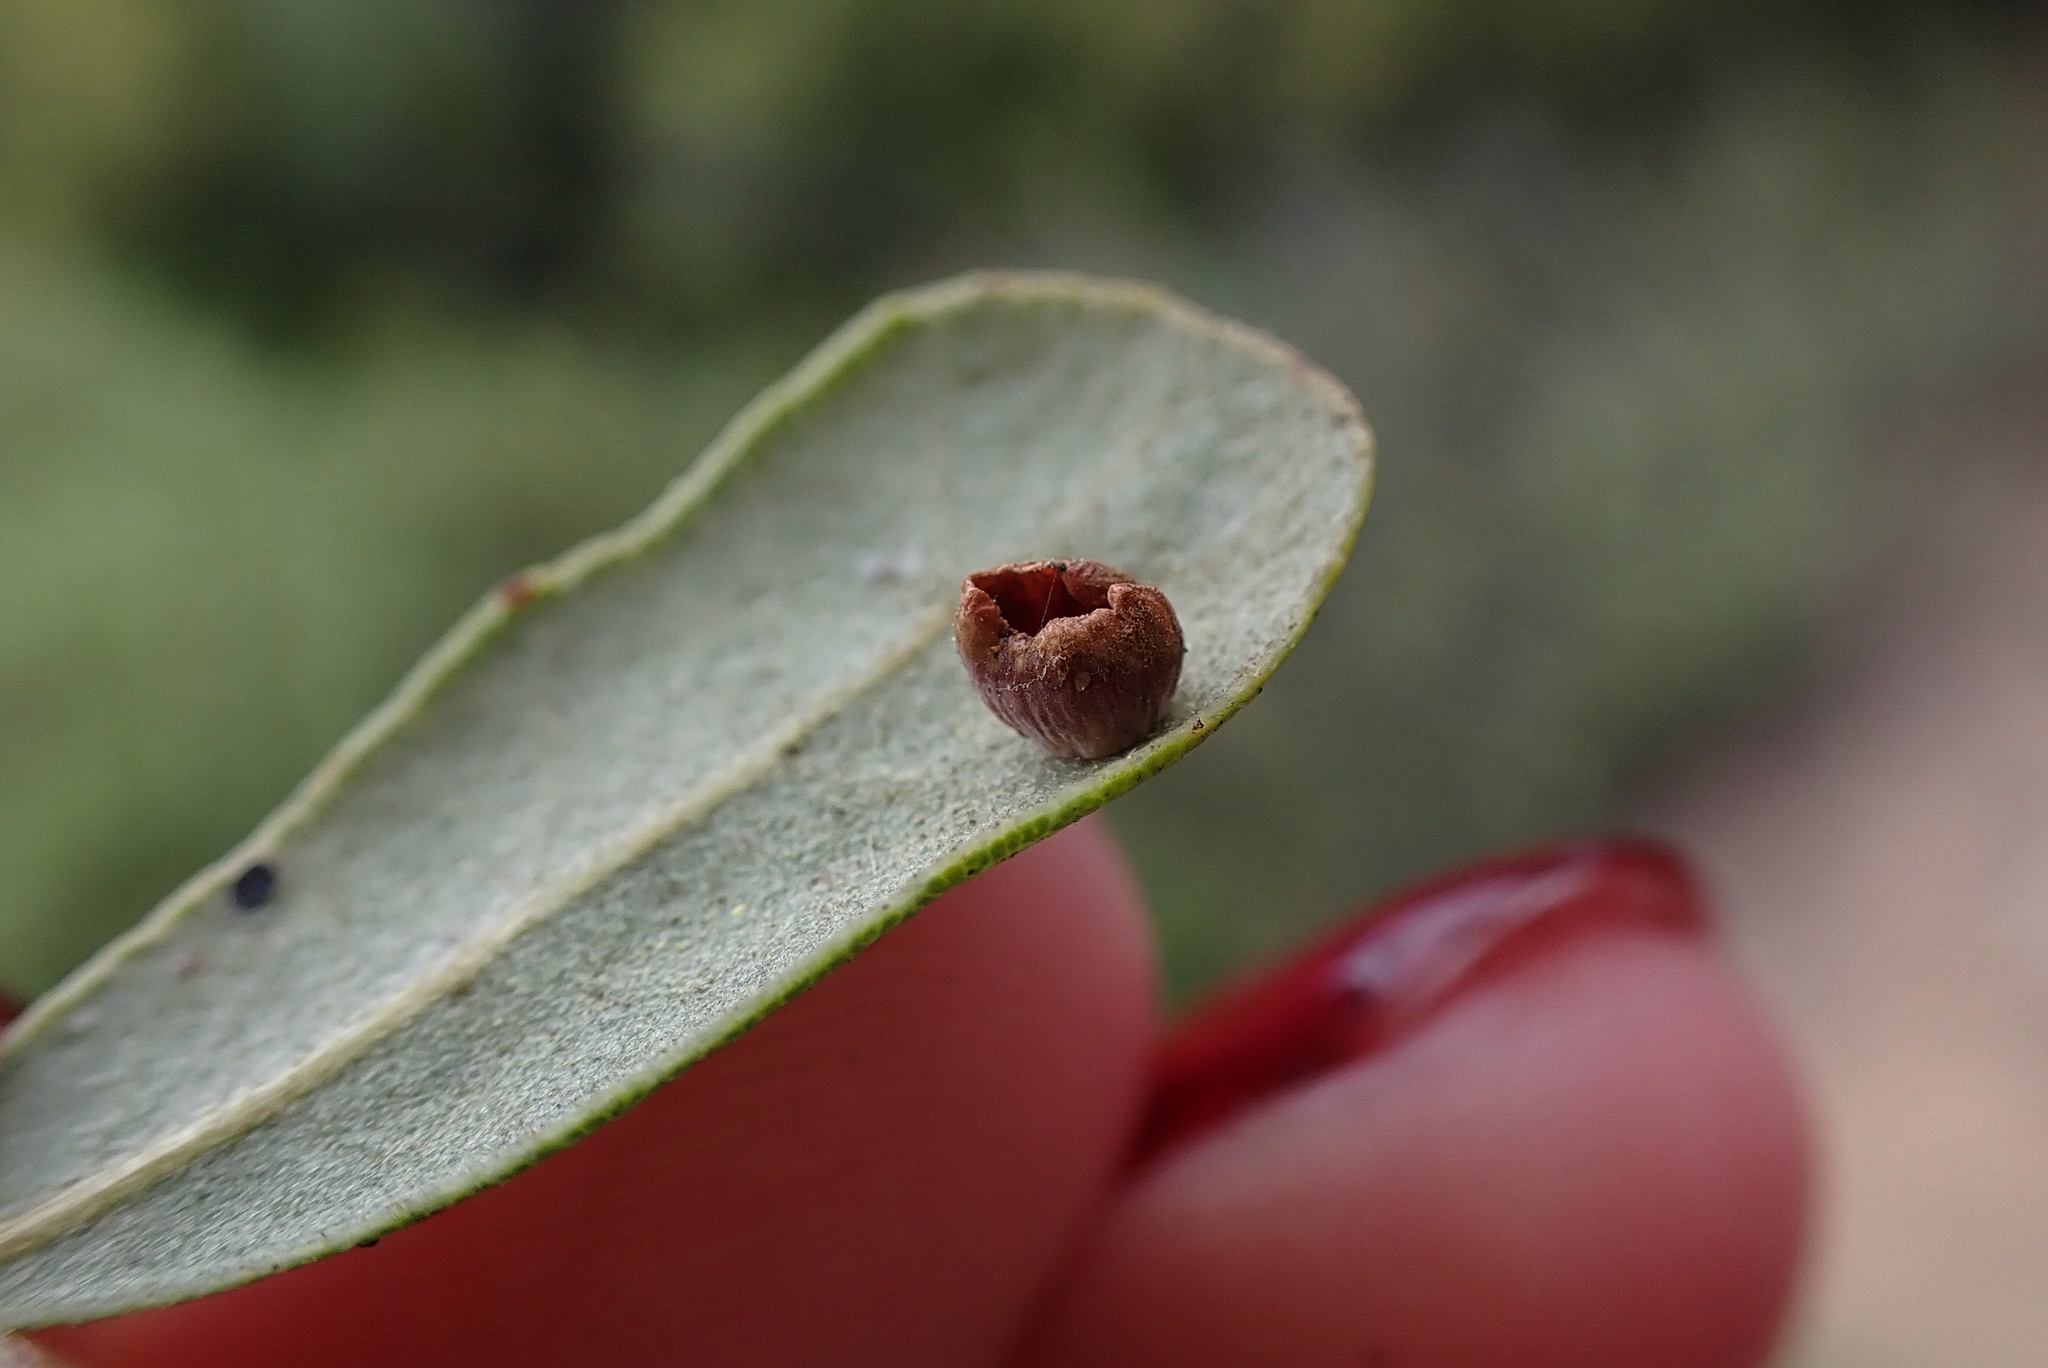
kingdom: Animalia
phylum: Arthropoda
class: Insecta
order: Hymenoptera
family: Cynipidae
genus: Andricus
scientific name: Andricus
